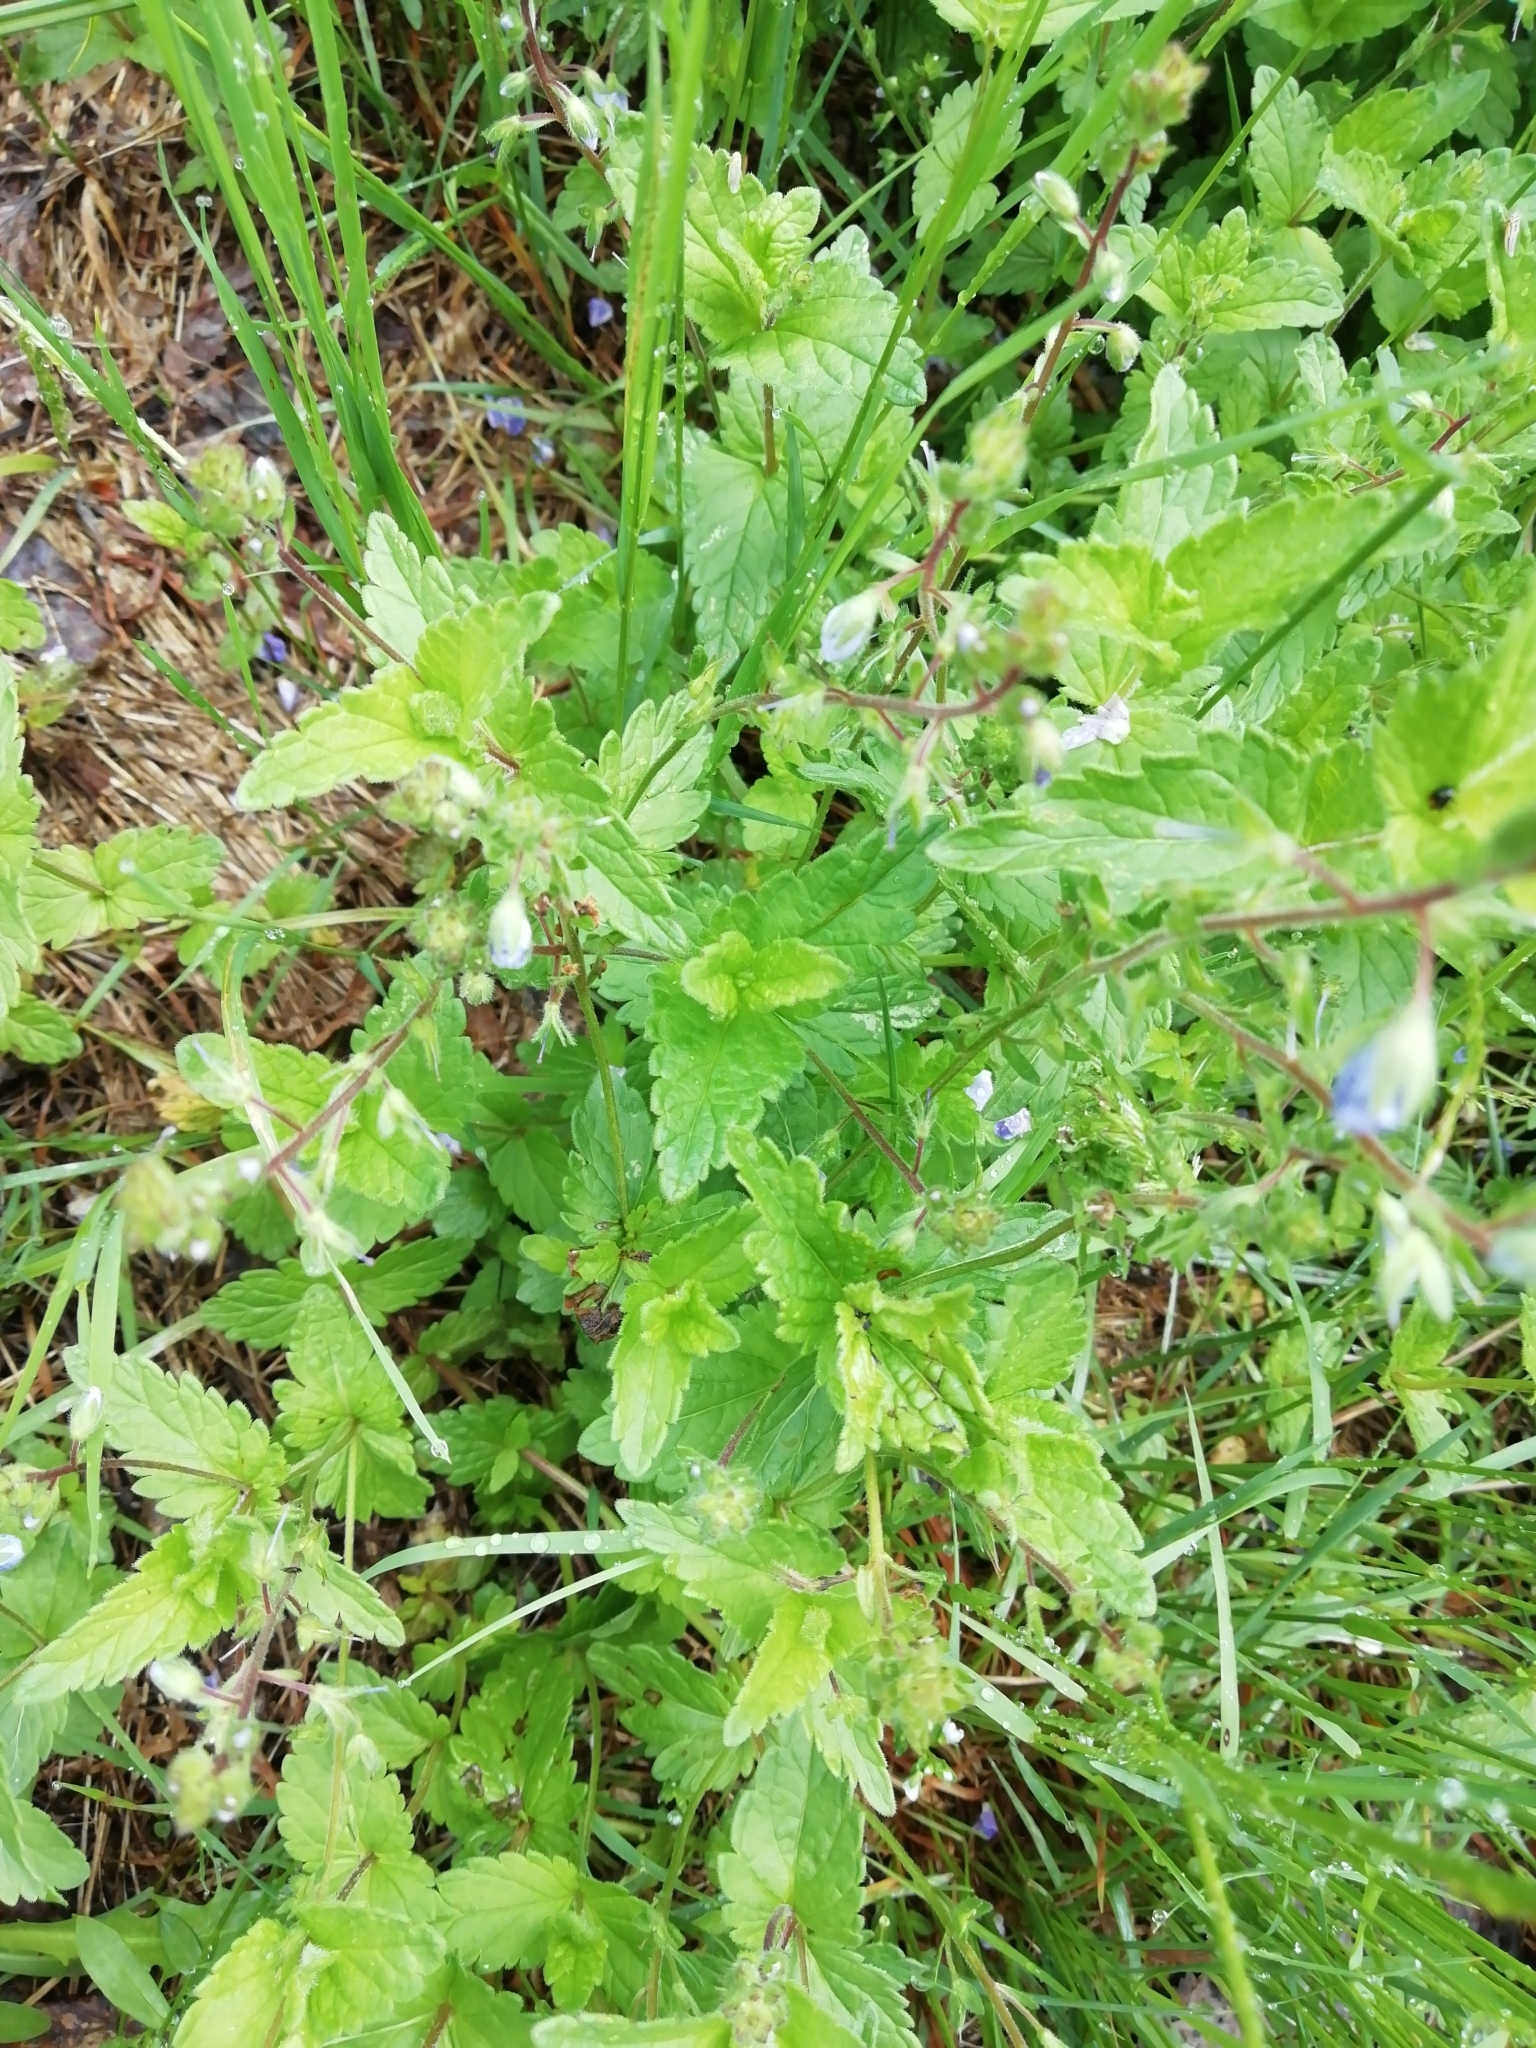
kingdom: Plantae
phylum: Tracheophyta
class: Magnoliopsida
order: Lamiales
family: Plantaginaceae
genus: Veronica
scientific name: Veronica chamaedrys
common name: Germander speedwell
